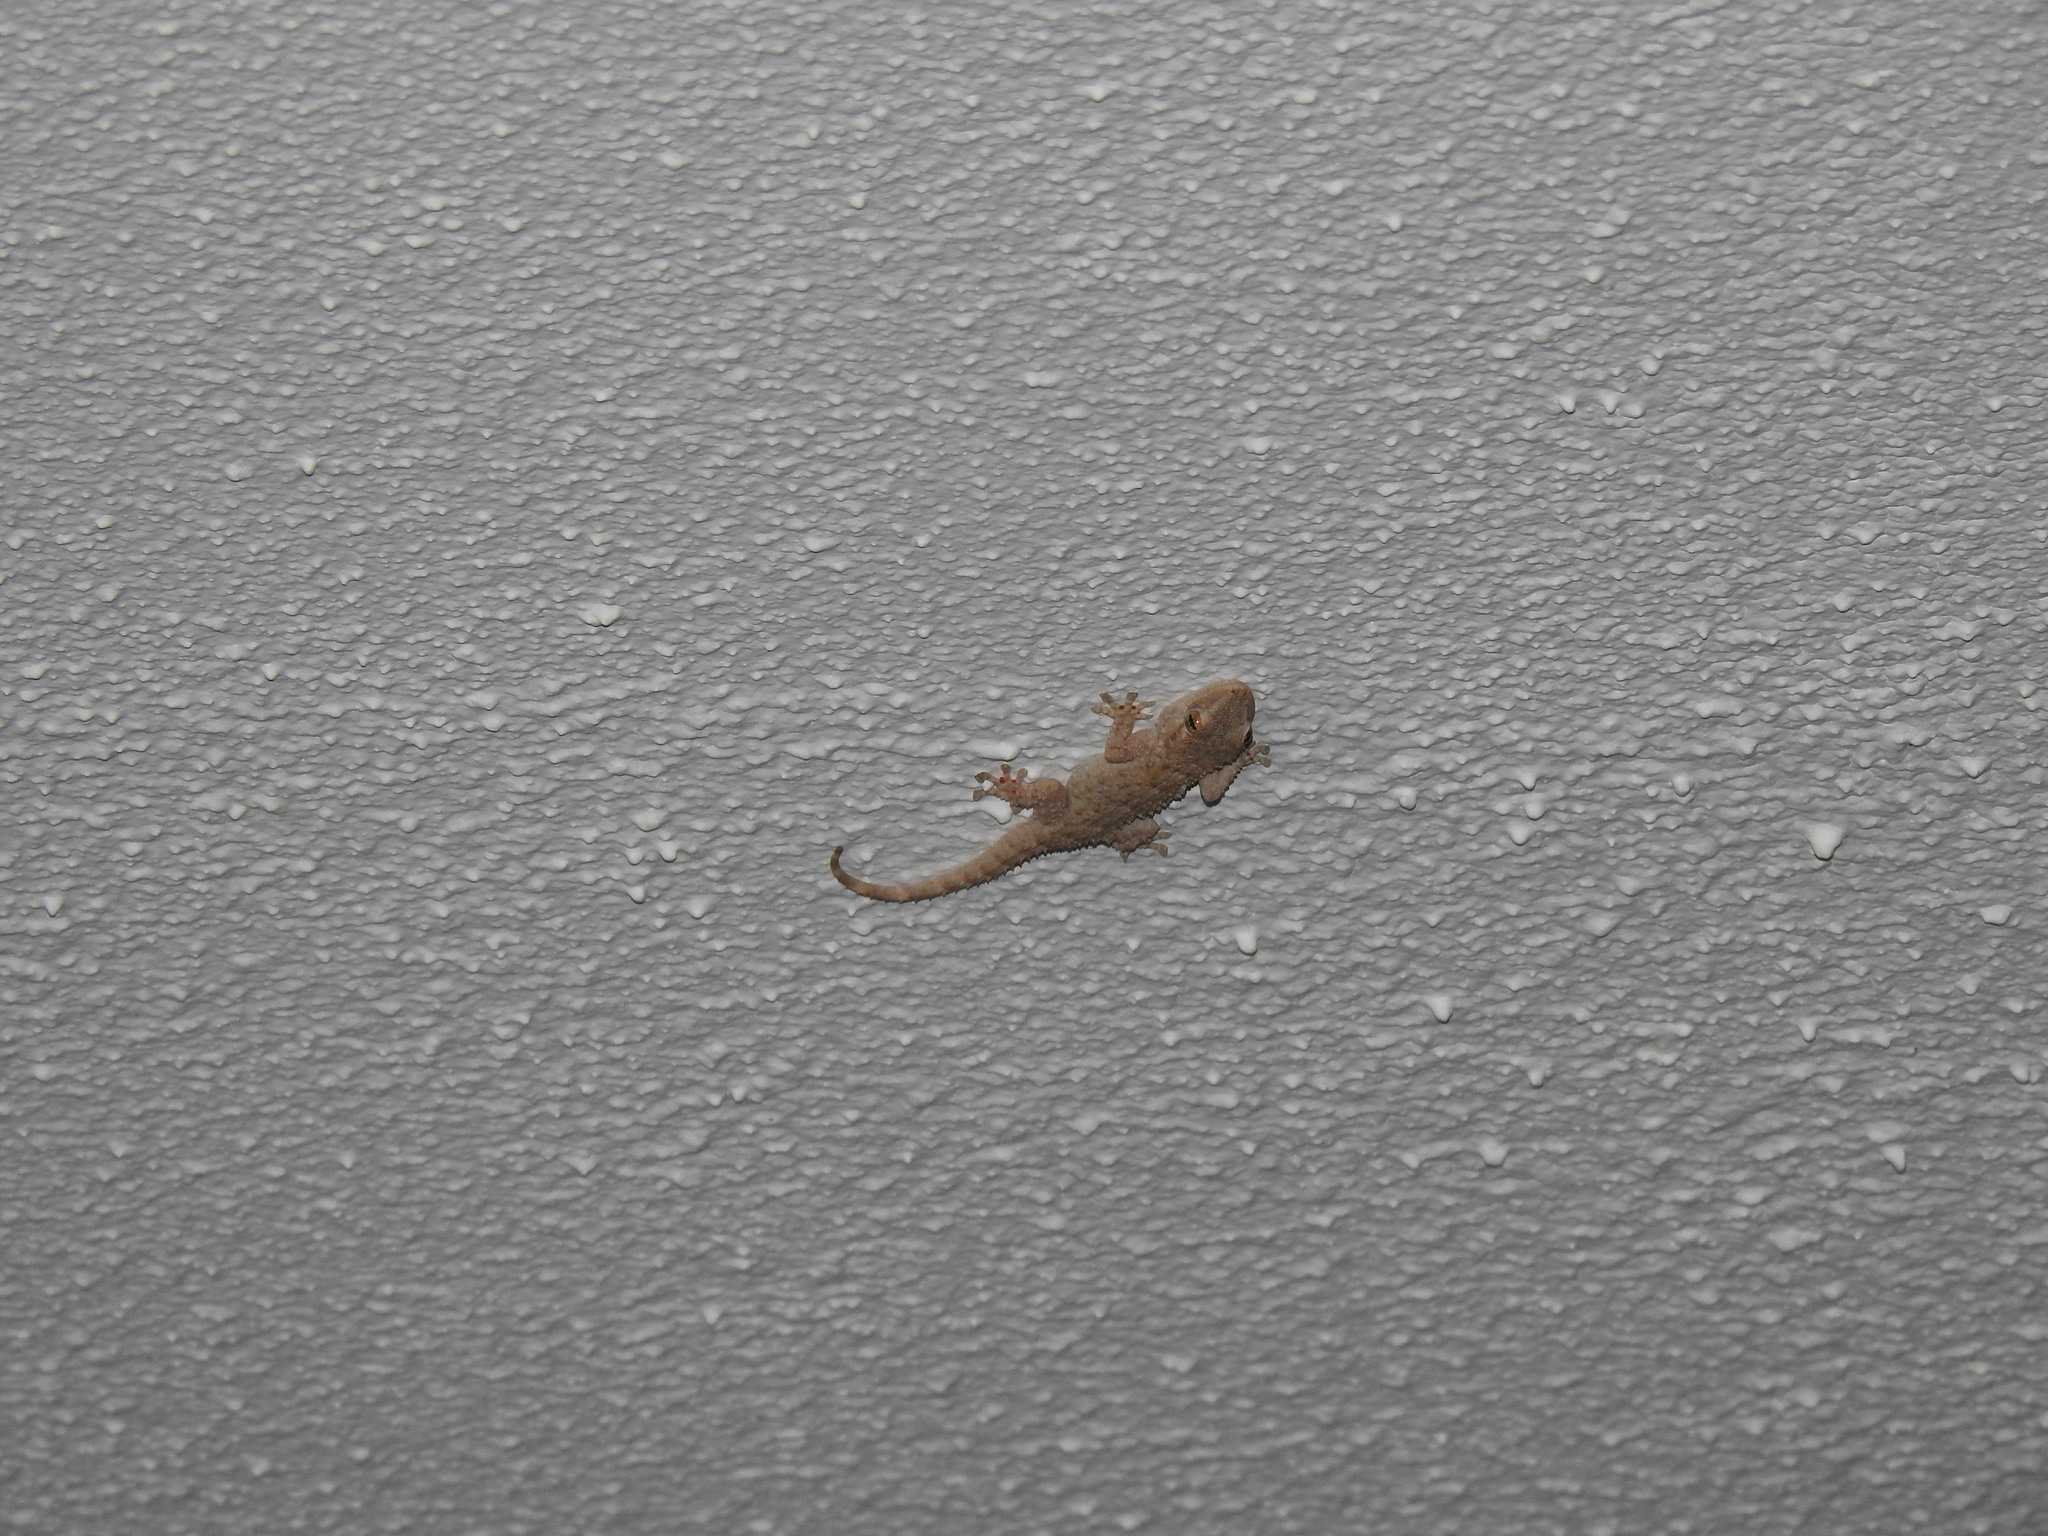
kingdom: Animalia
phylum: Chordata
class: Squamata
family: Phyllodactylidae
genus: Tarentola
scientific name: Tarentola mauritanica
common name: Moorish gecko
